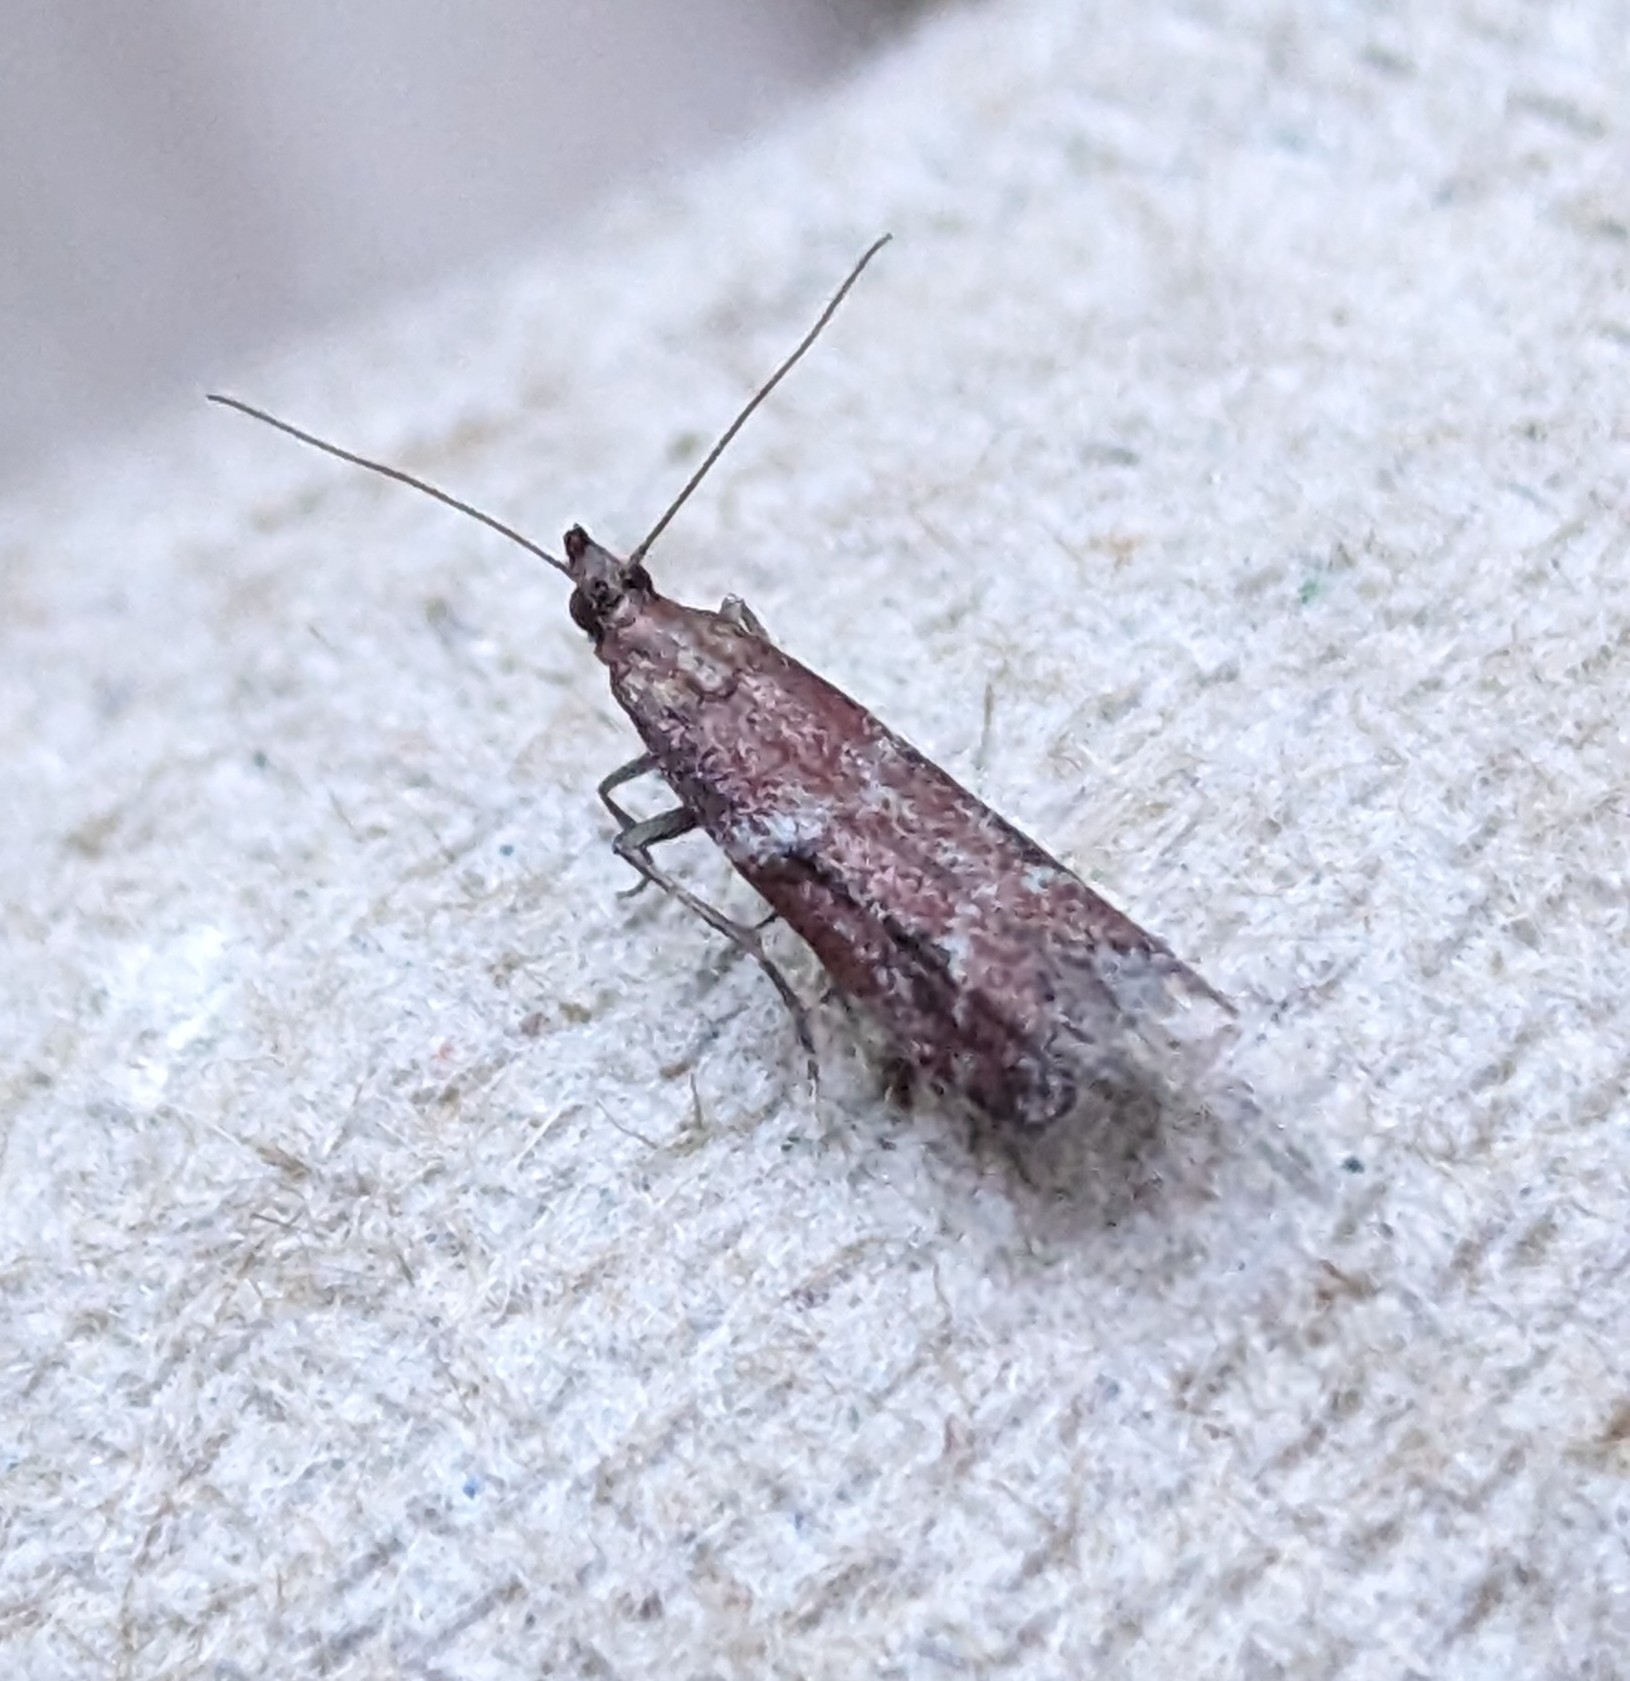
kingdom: Animalia
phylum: Arthropoda
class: Insecta
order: Lepidoptera
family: Pyralidae
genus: Ephestiodes
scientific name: Ephestiodes erythrella
